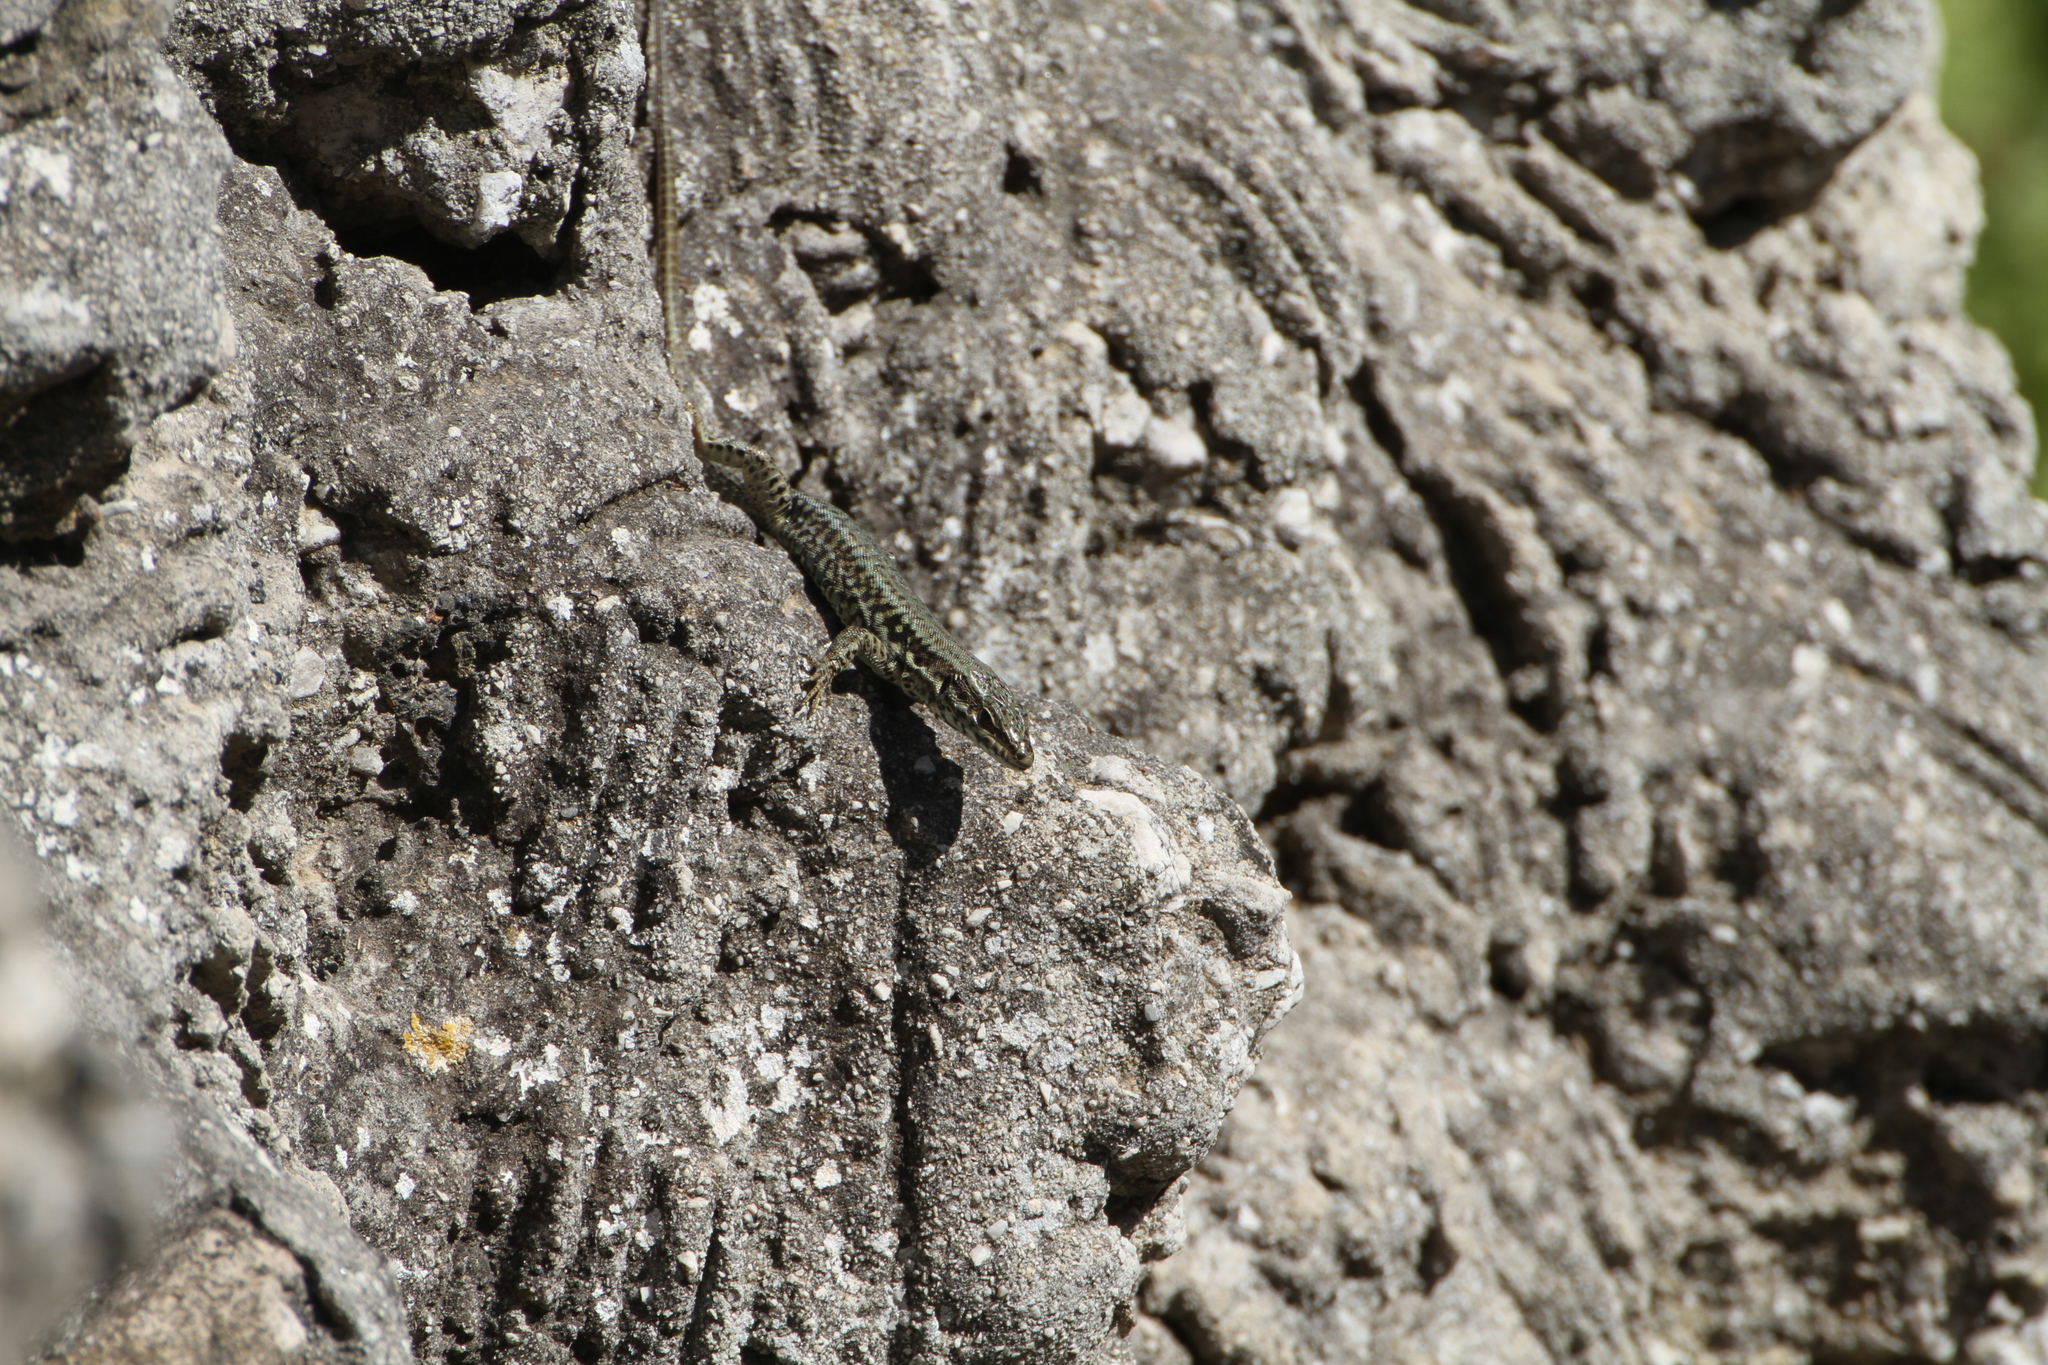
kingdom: Animalia
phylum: Chordata
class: Squamata
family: Lacertidae
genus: Podarcis
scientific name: Podarcis muralis
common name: Common wall lizard
